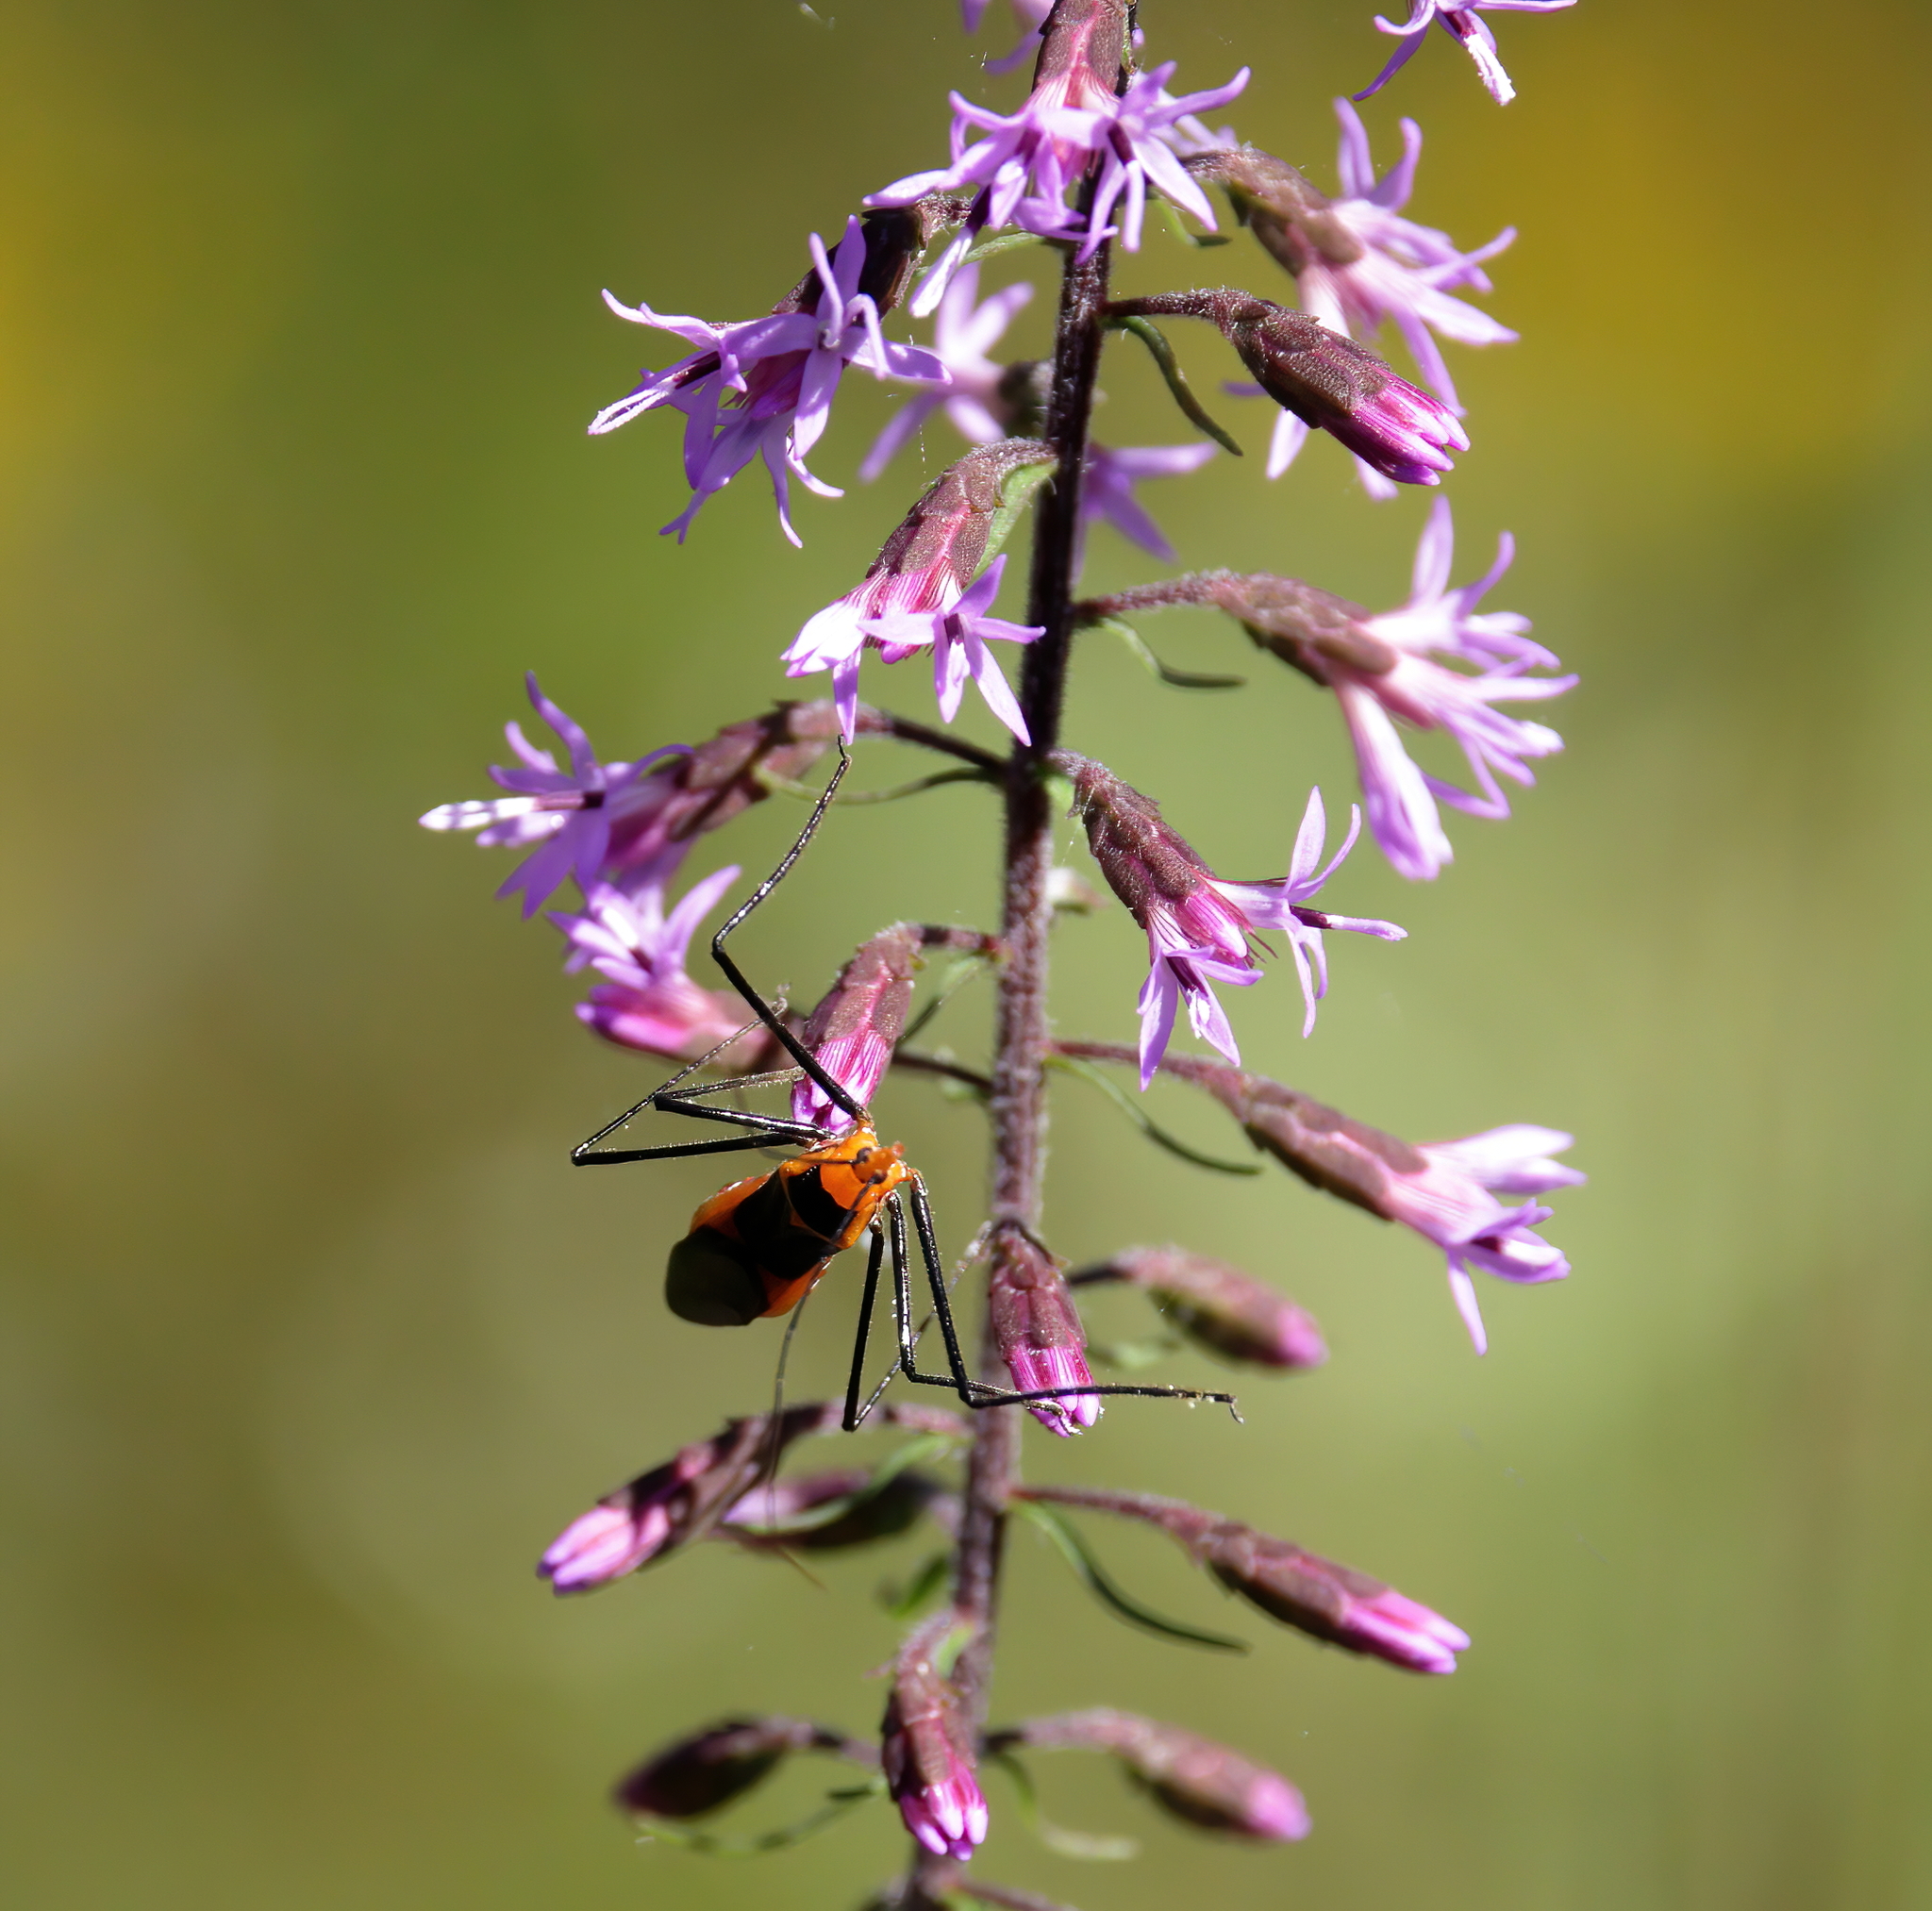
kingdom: Animalia
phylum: Arthropoda
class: Insecta
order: Hemiptera
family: Reduviidae
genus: Zelus
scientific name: Zelus longipes
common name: Milkweed assassin bug
